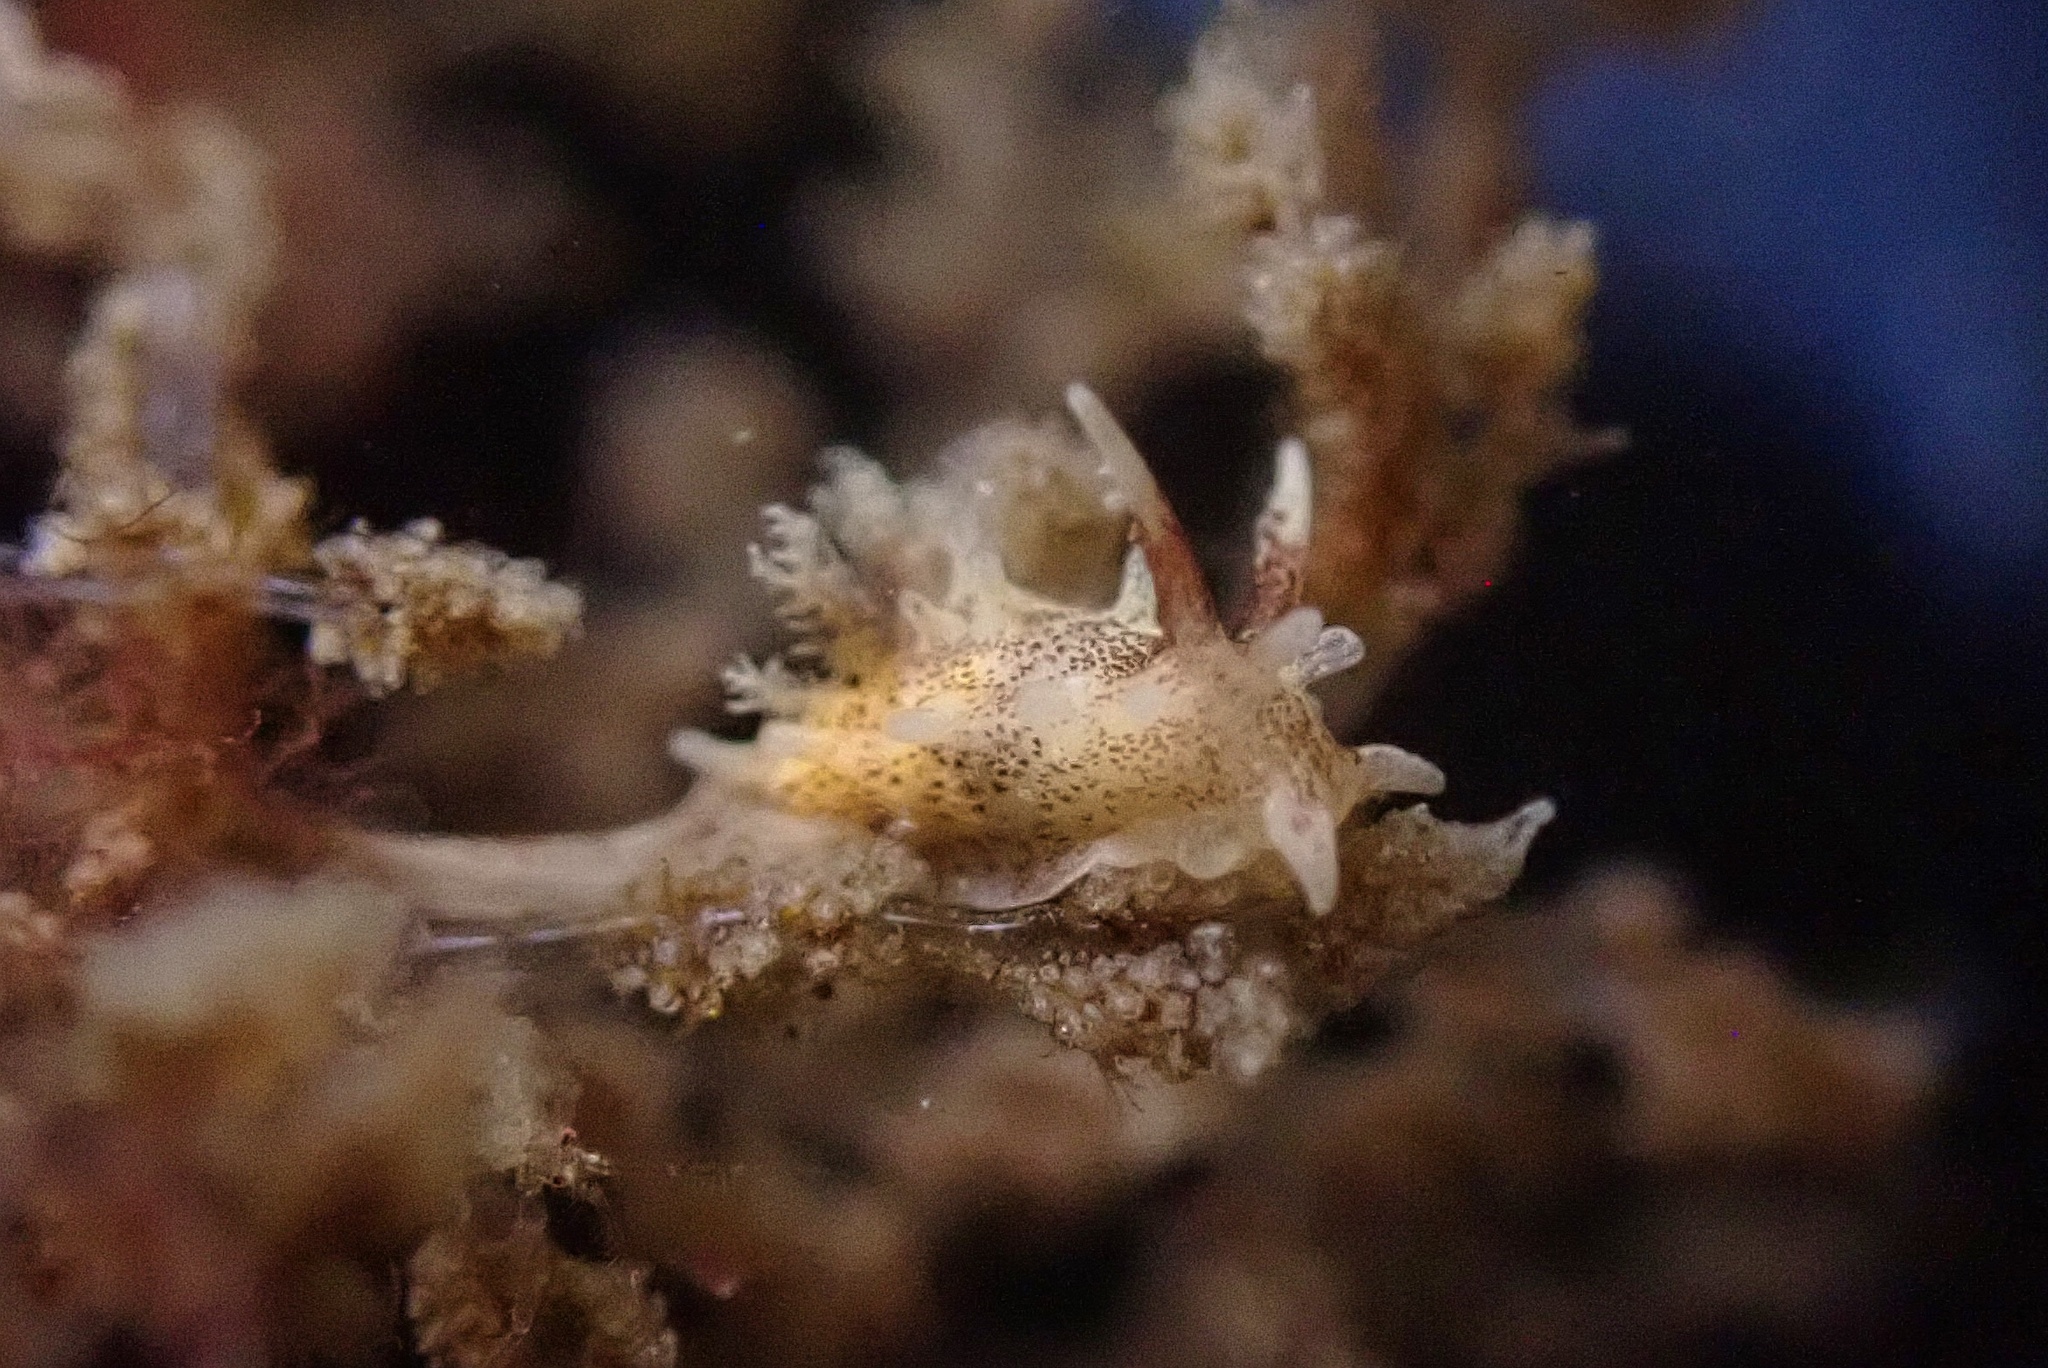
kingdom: Animalia
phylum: Mollusca
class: Gastropoda
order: Nudibranchia
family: Goniodorididae
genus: Okenia
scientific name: Okenia
